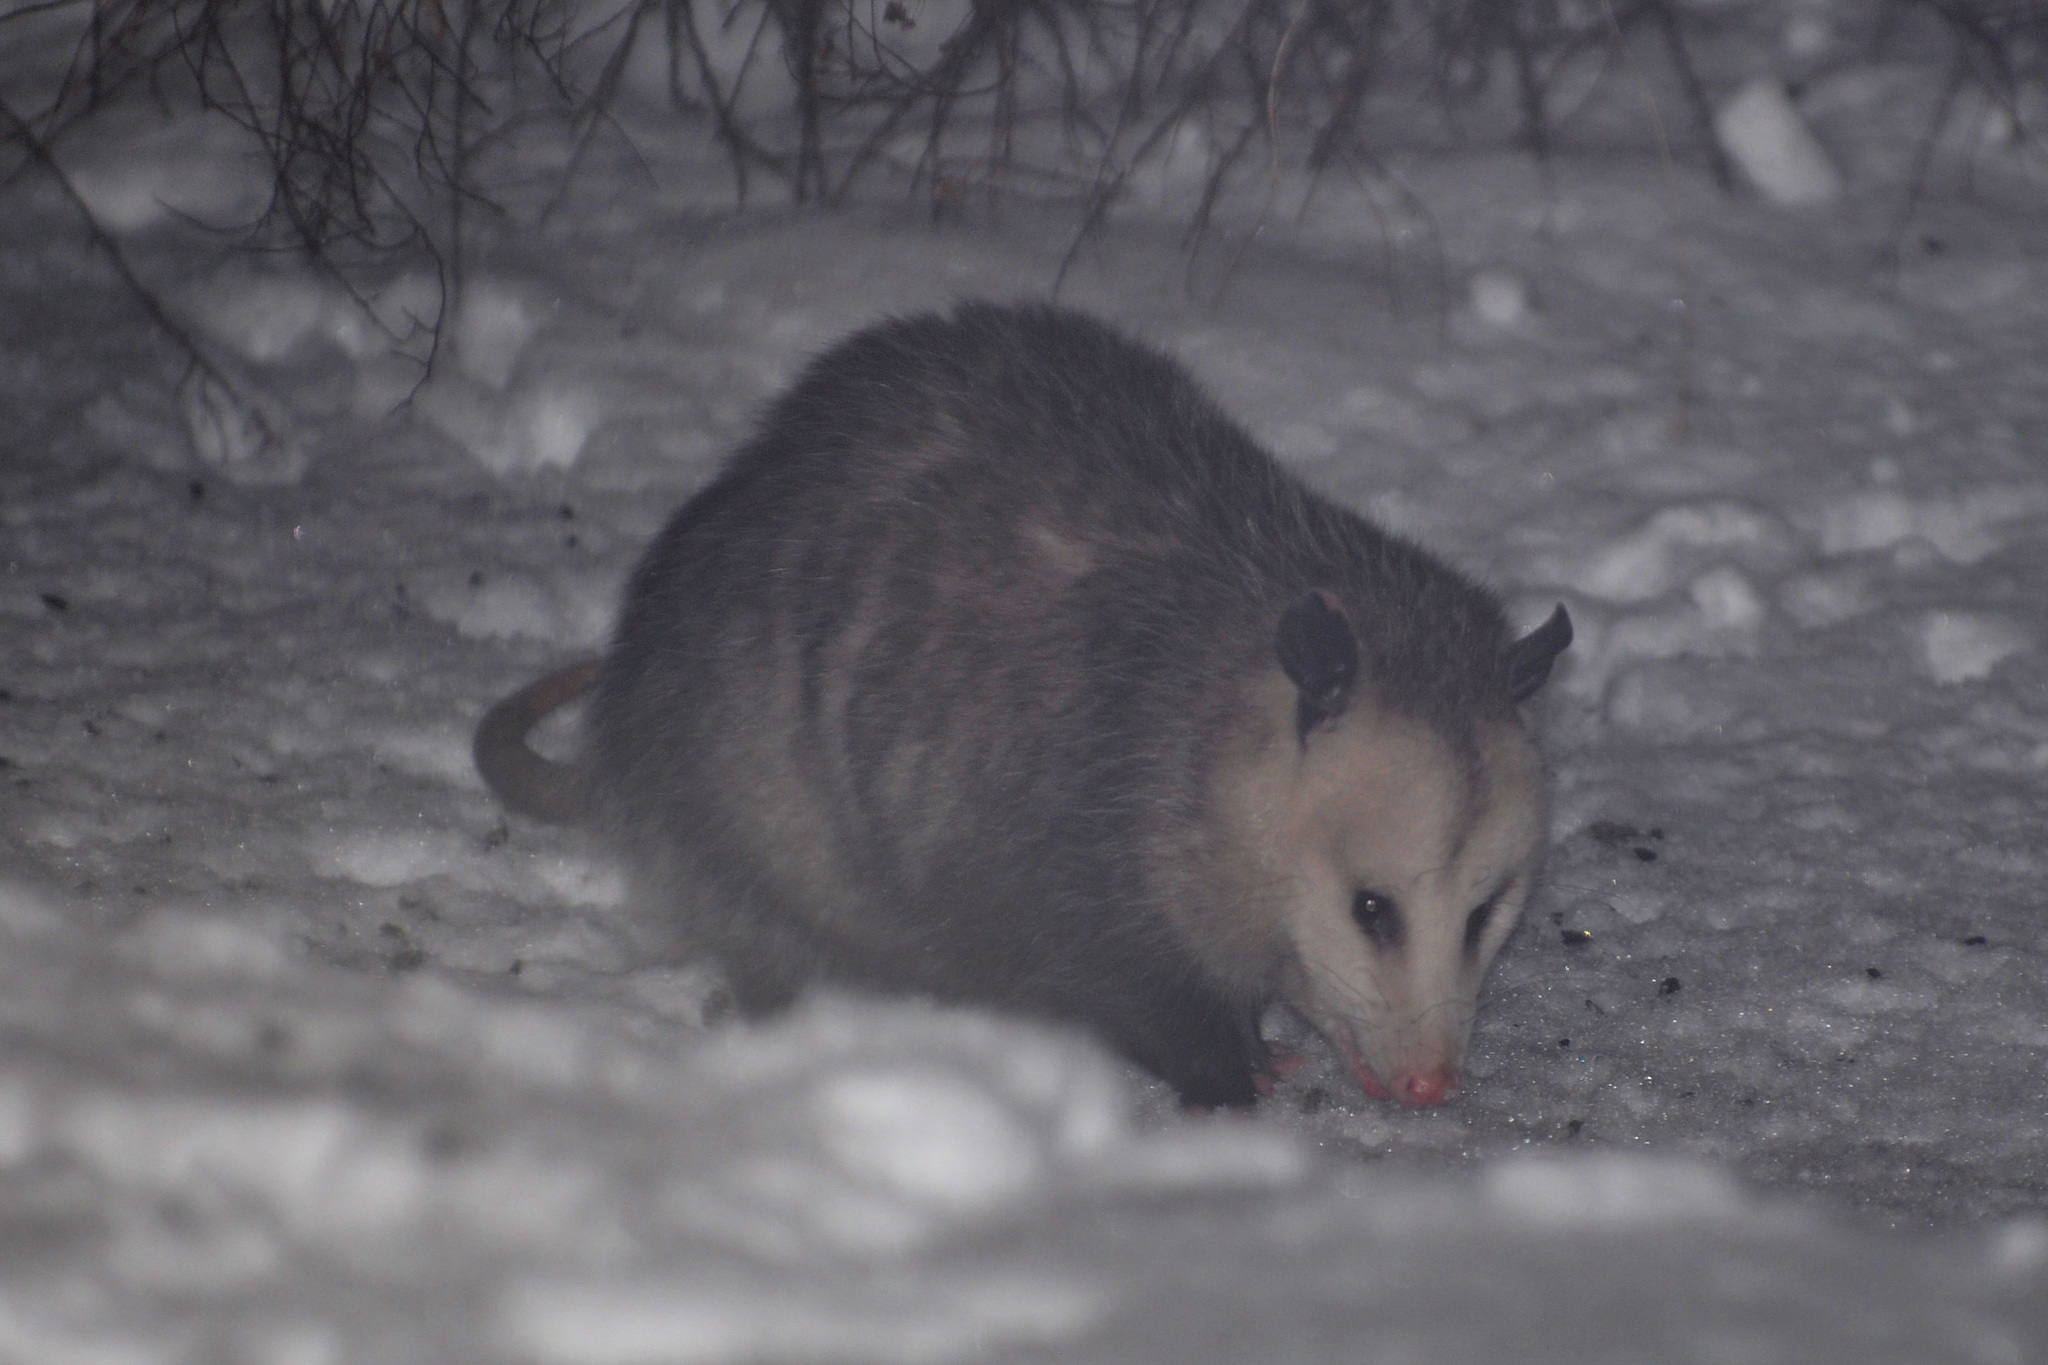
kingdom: Animalia
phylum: Chordata
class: Mammalia
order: Didelphimorphia
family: Didelphidae
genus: Didelphis
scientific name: Didelphis virginiana
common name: Virginia opossum
